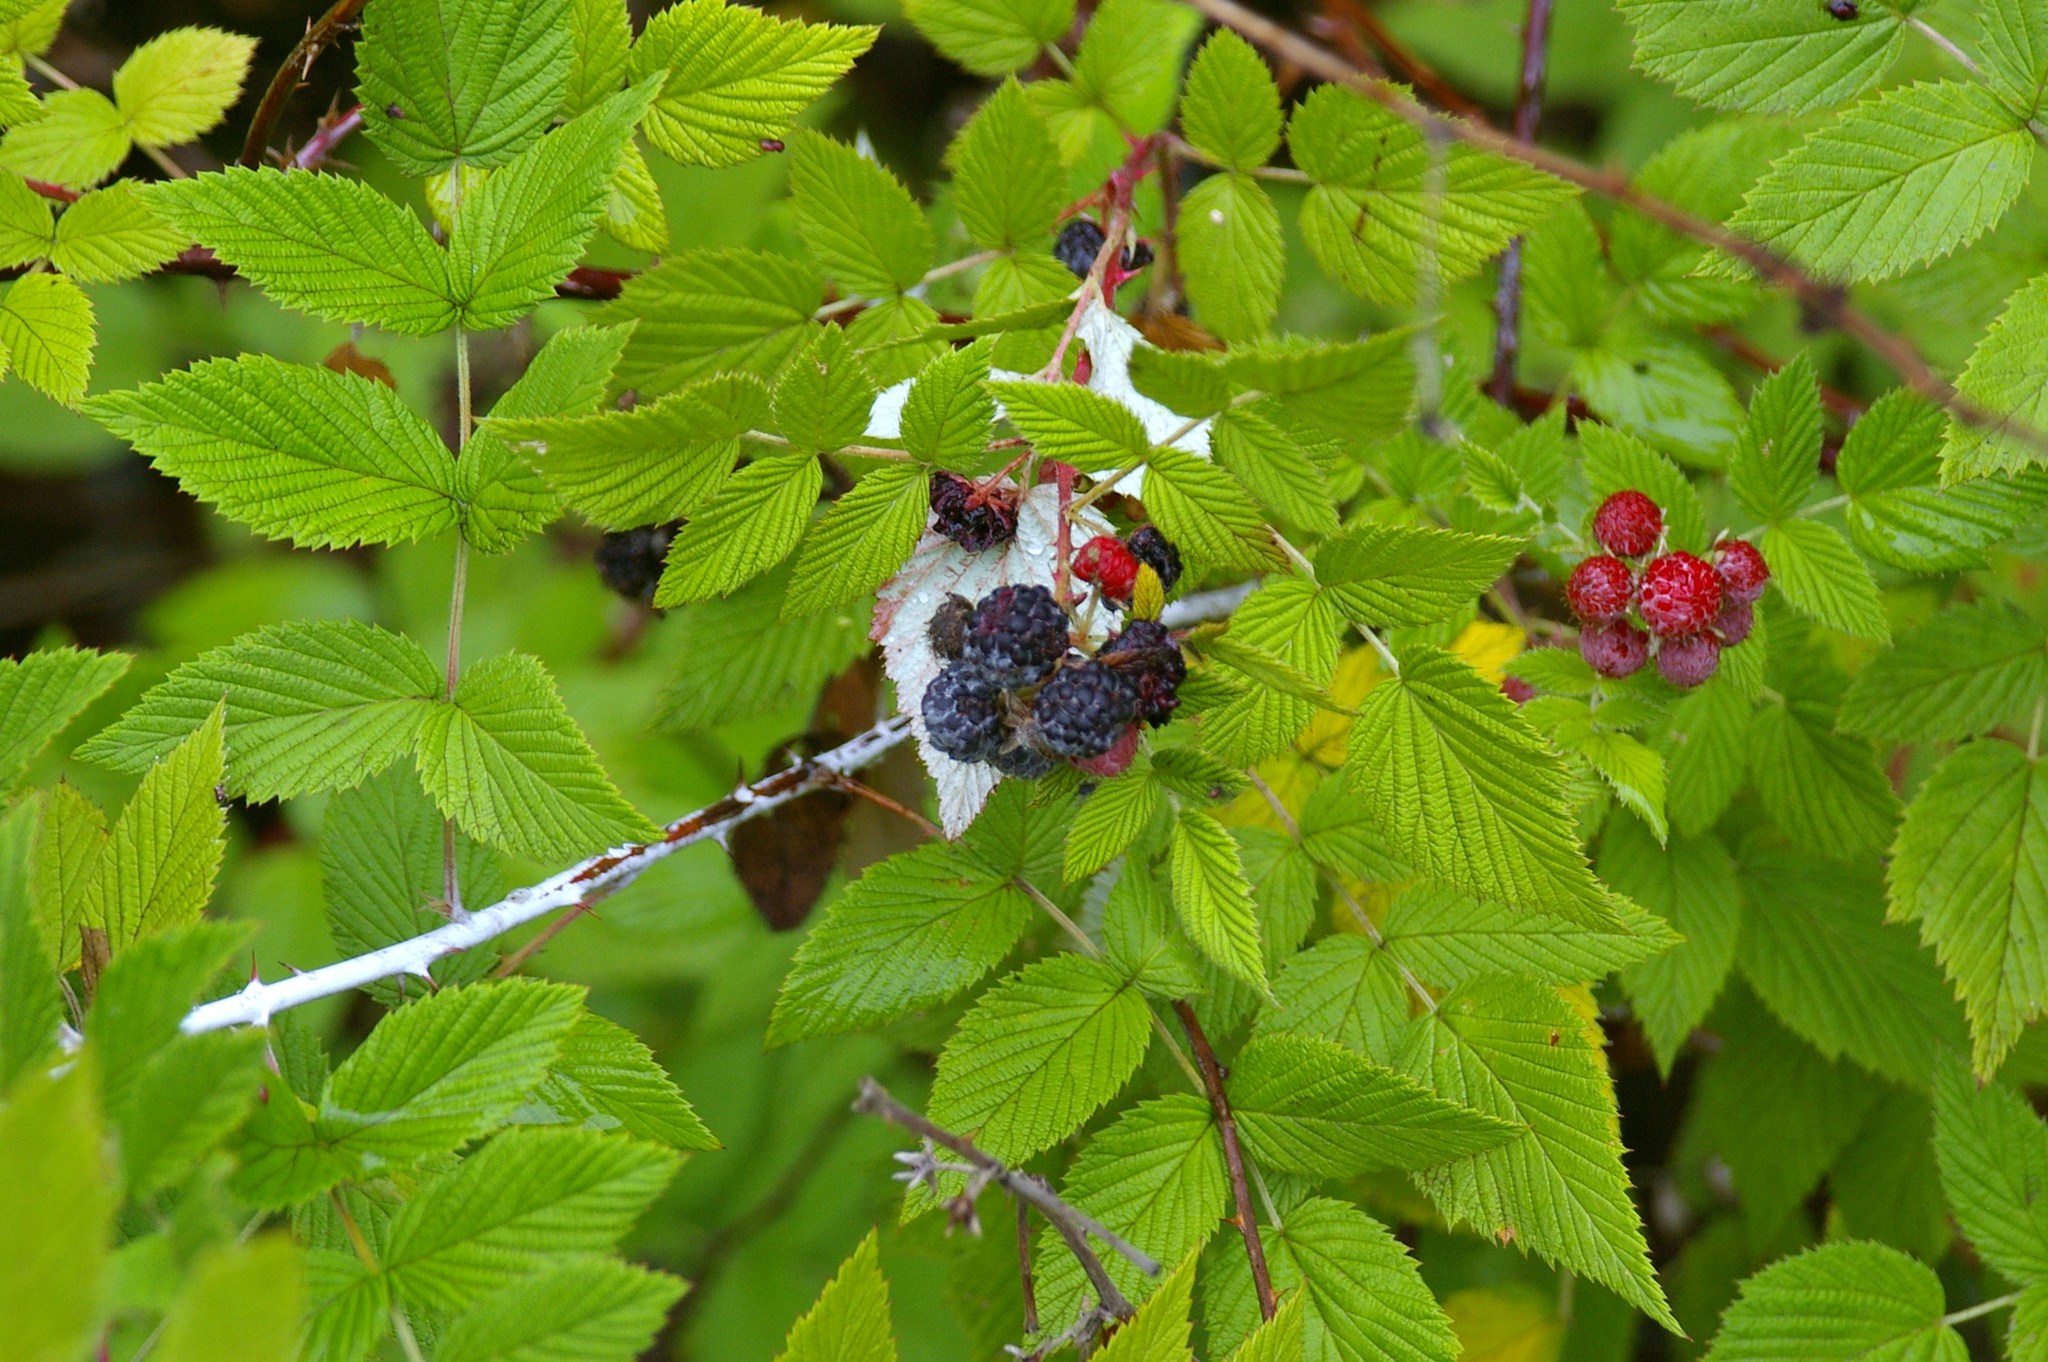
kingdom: Plantae
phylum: Tracheophyta
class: Magnoliopsida
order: Rosales
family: Rosaceae
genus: Rubus
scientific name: Rubus niveus
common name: Snowpeaks raspberry
